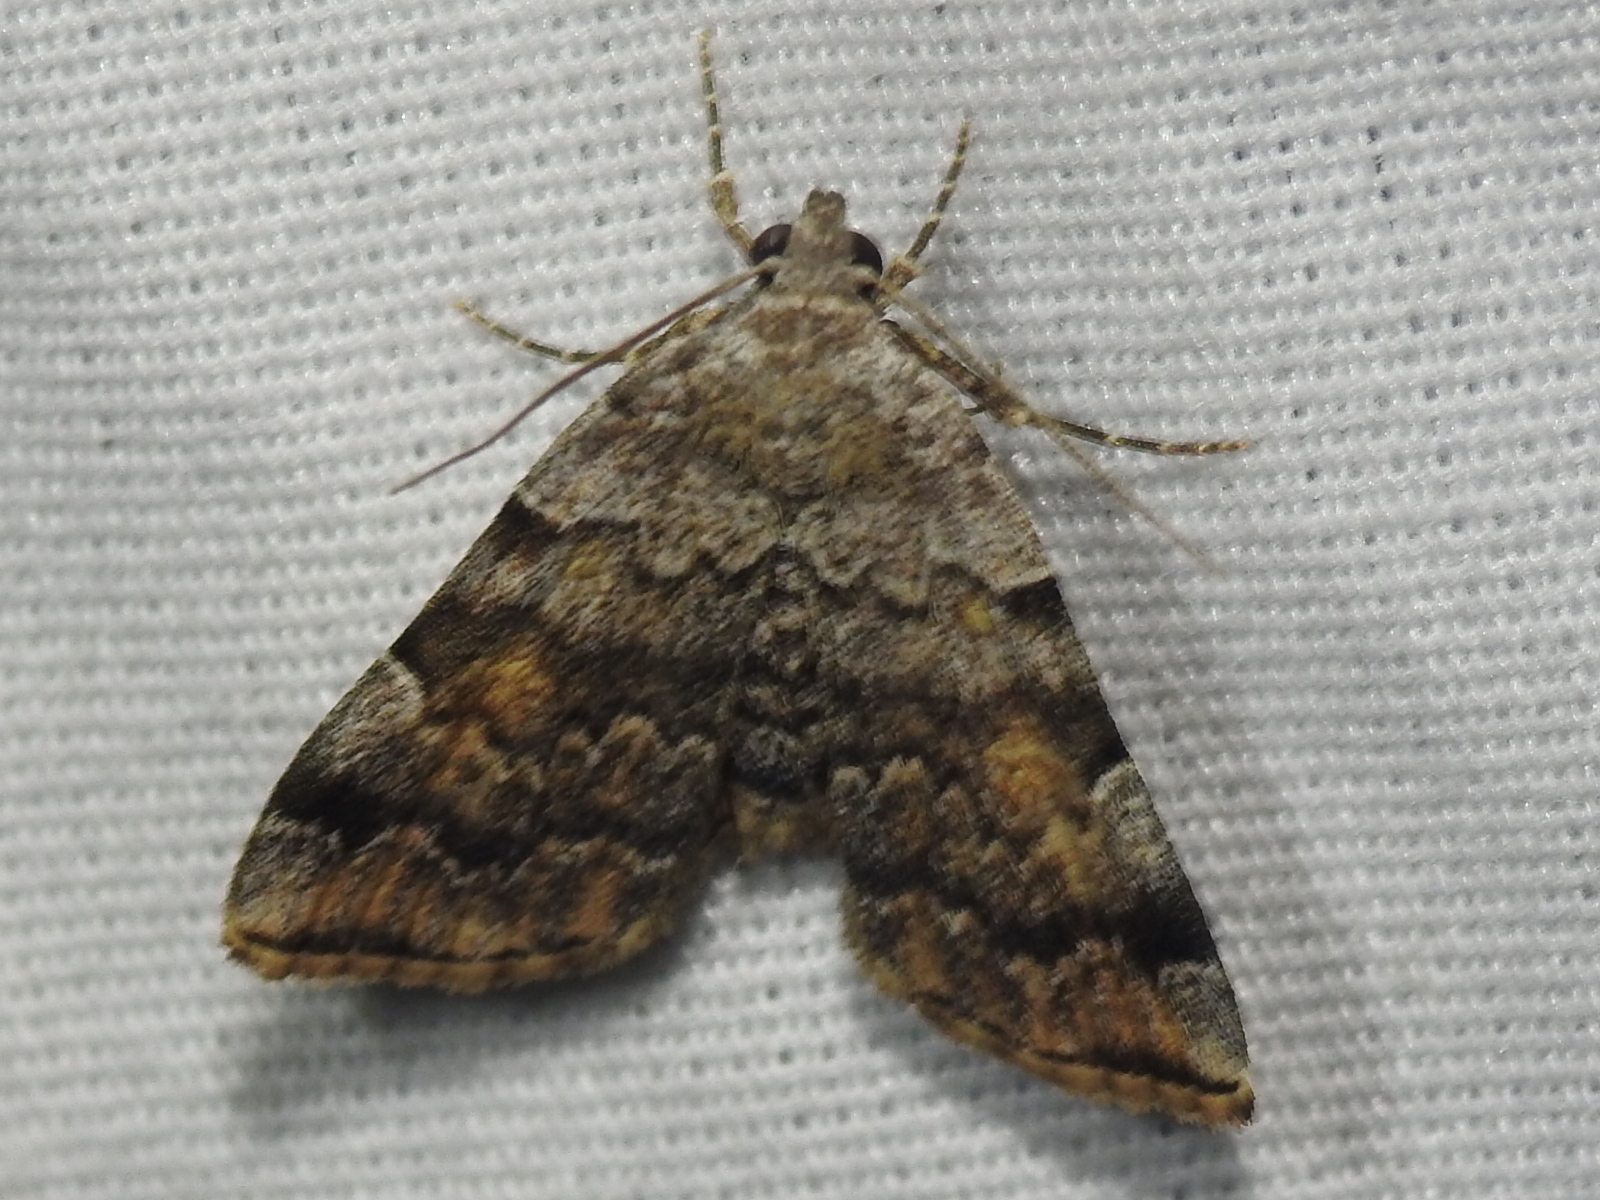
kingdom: Animalia
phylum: Arthropoda
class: Insecta
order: Lepidoptera
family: Erebidae
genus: Idia
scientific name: Idia americalis
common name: American idia moth
